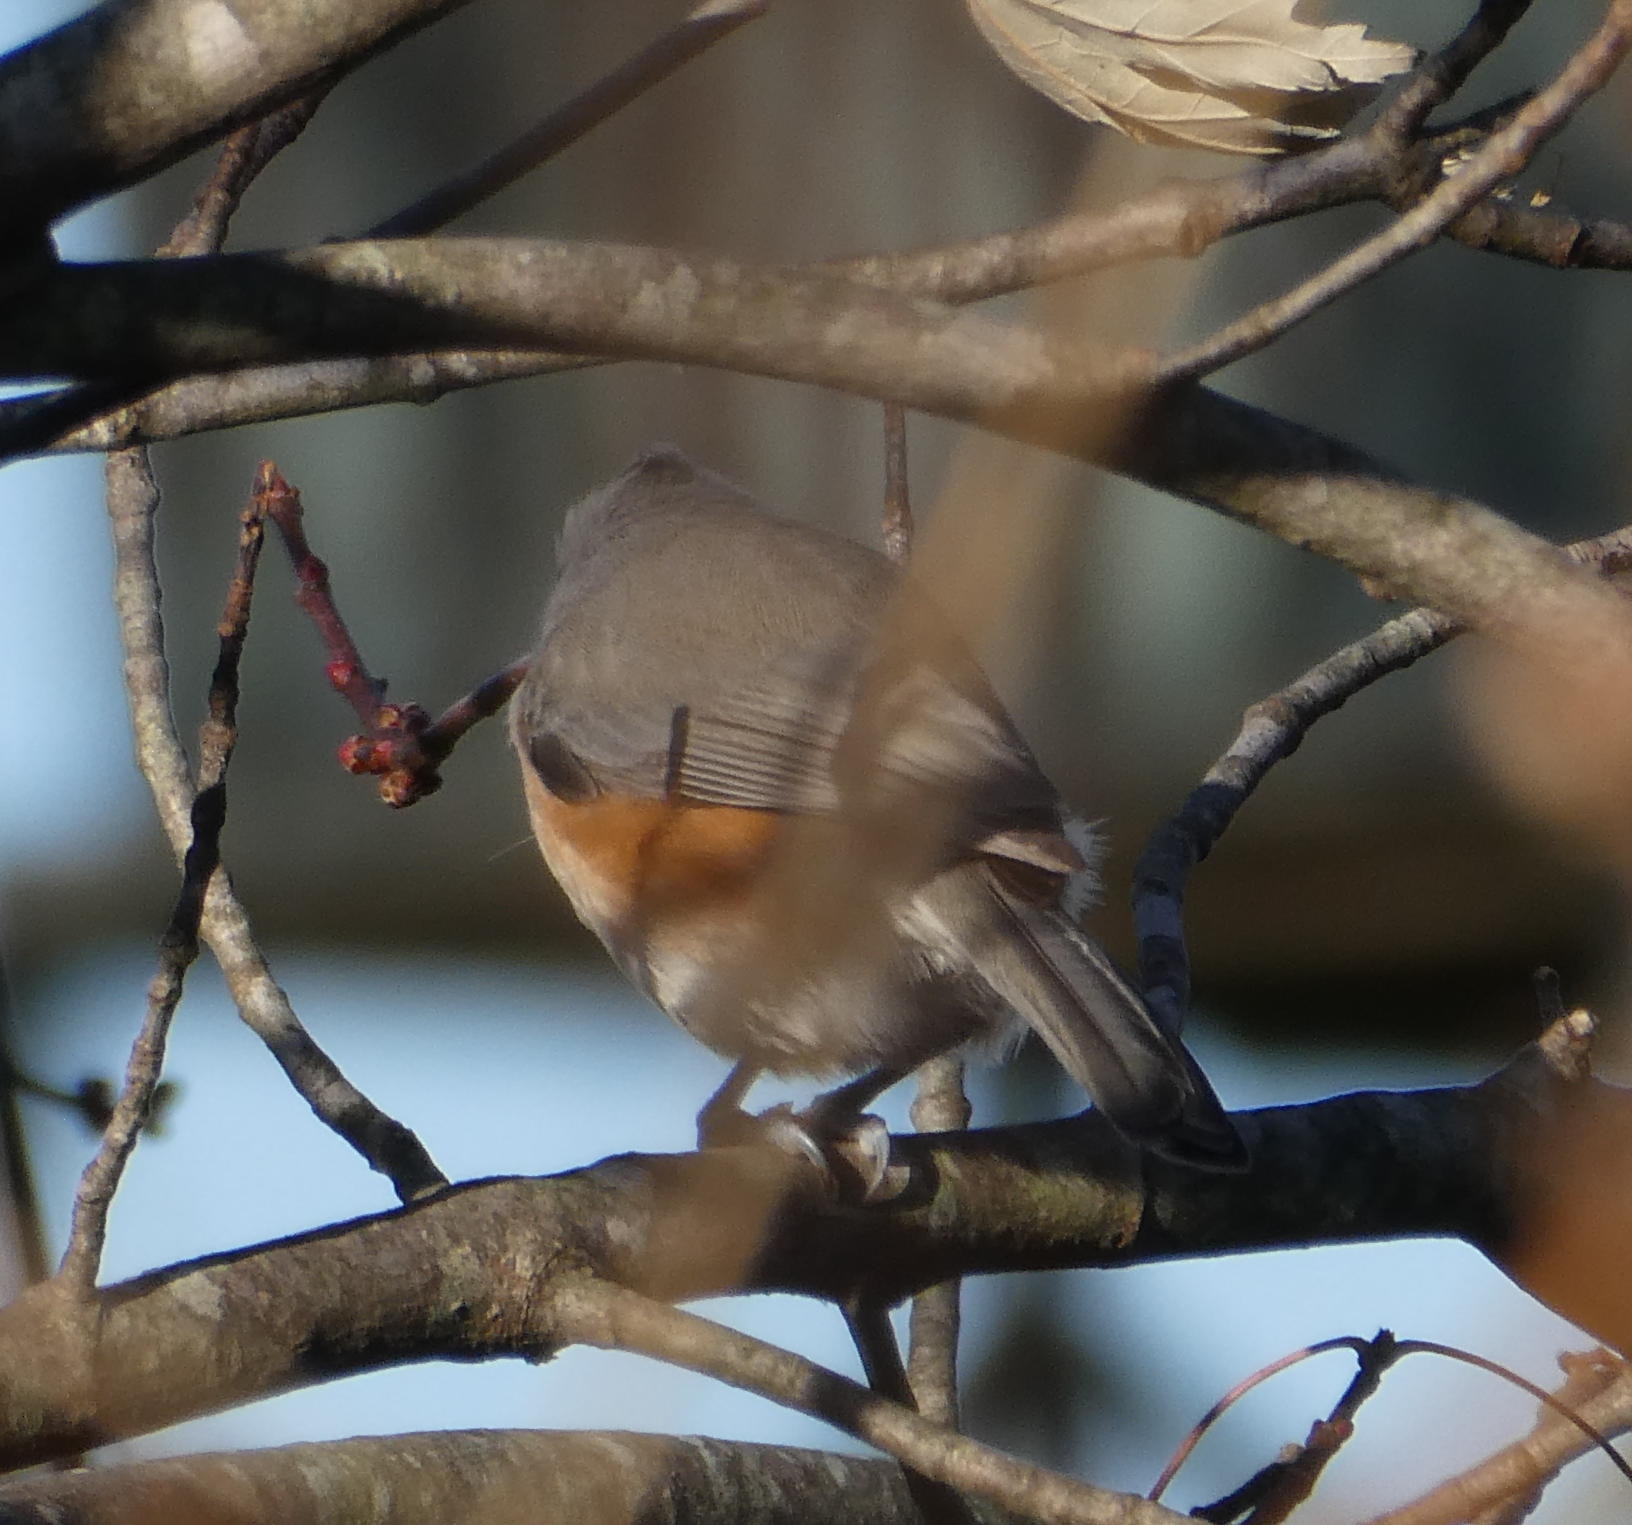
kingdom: Animalia
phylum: Chordata
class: Aves
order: Passeriformes
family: Paridae
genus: Baeolophus
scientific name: Baeolophus bicolor
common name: Tufted titmouse
